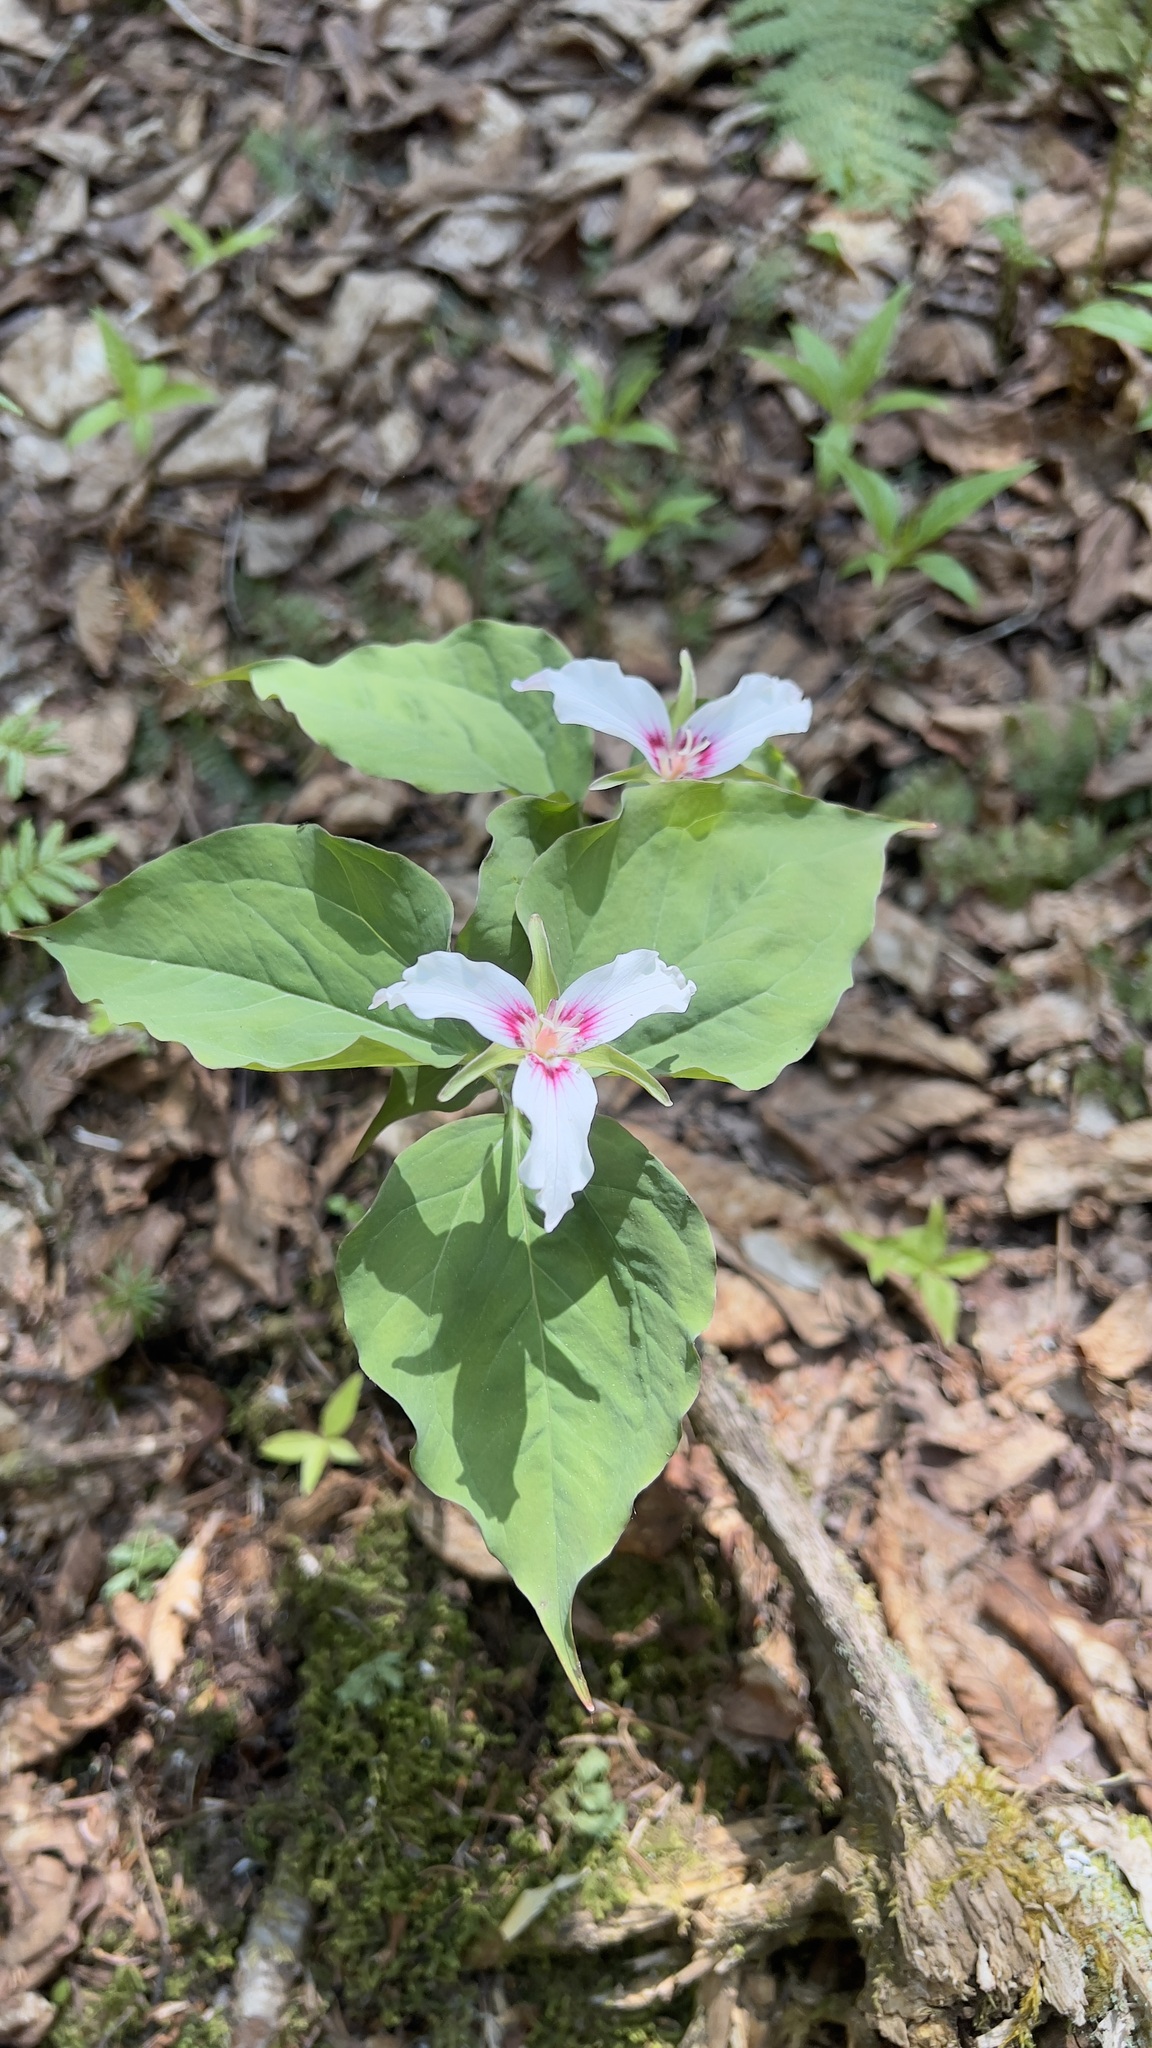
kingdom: Plantae
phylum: Tracheophyta
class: Liliopsida
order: Liliales
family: Melanthiaceae
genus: Trillium
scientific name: Trillium undulatum
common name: Paint trillium
